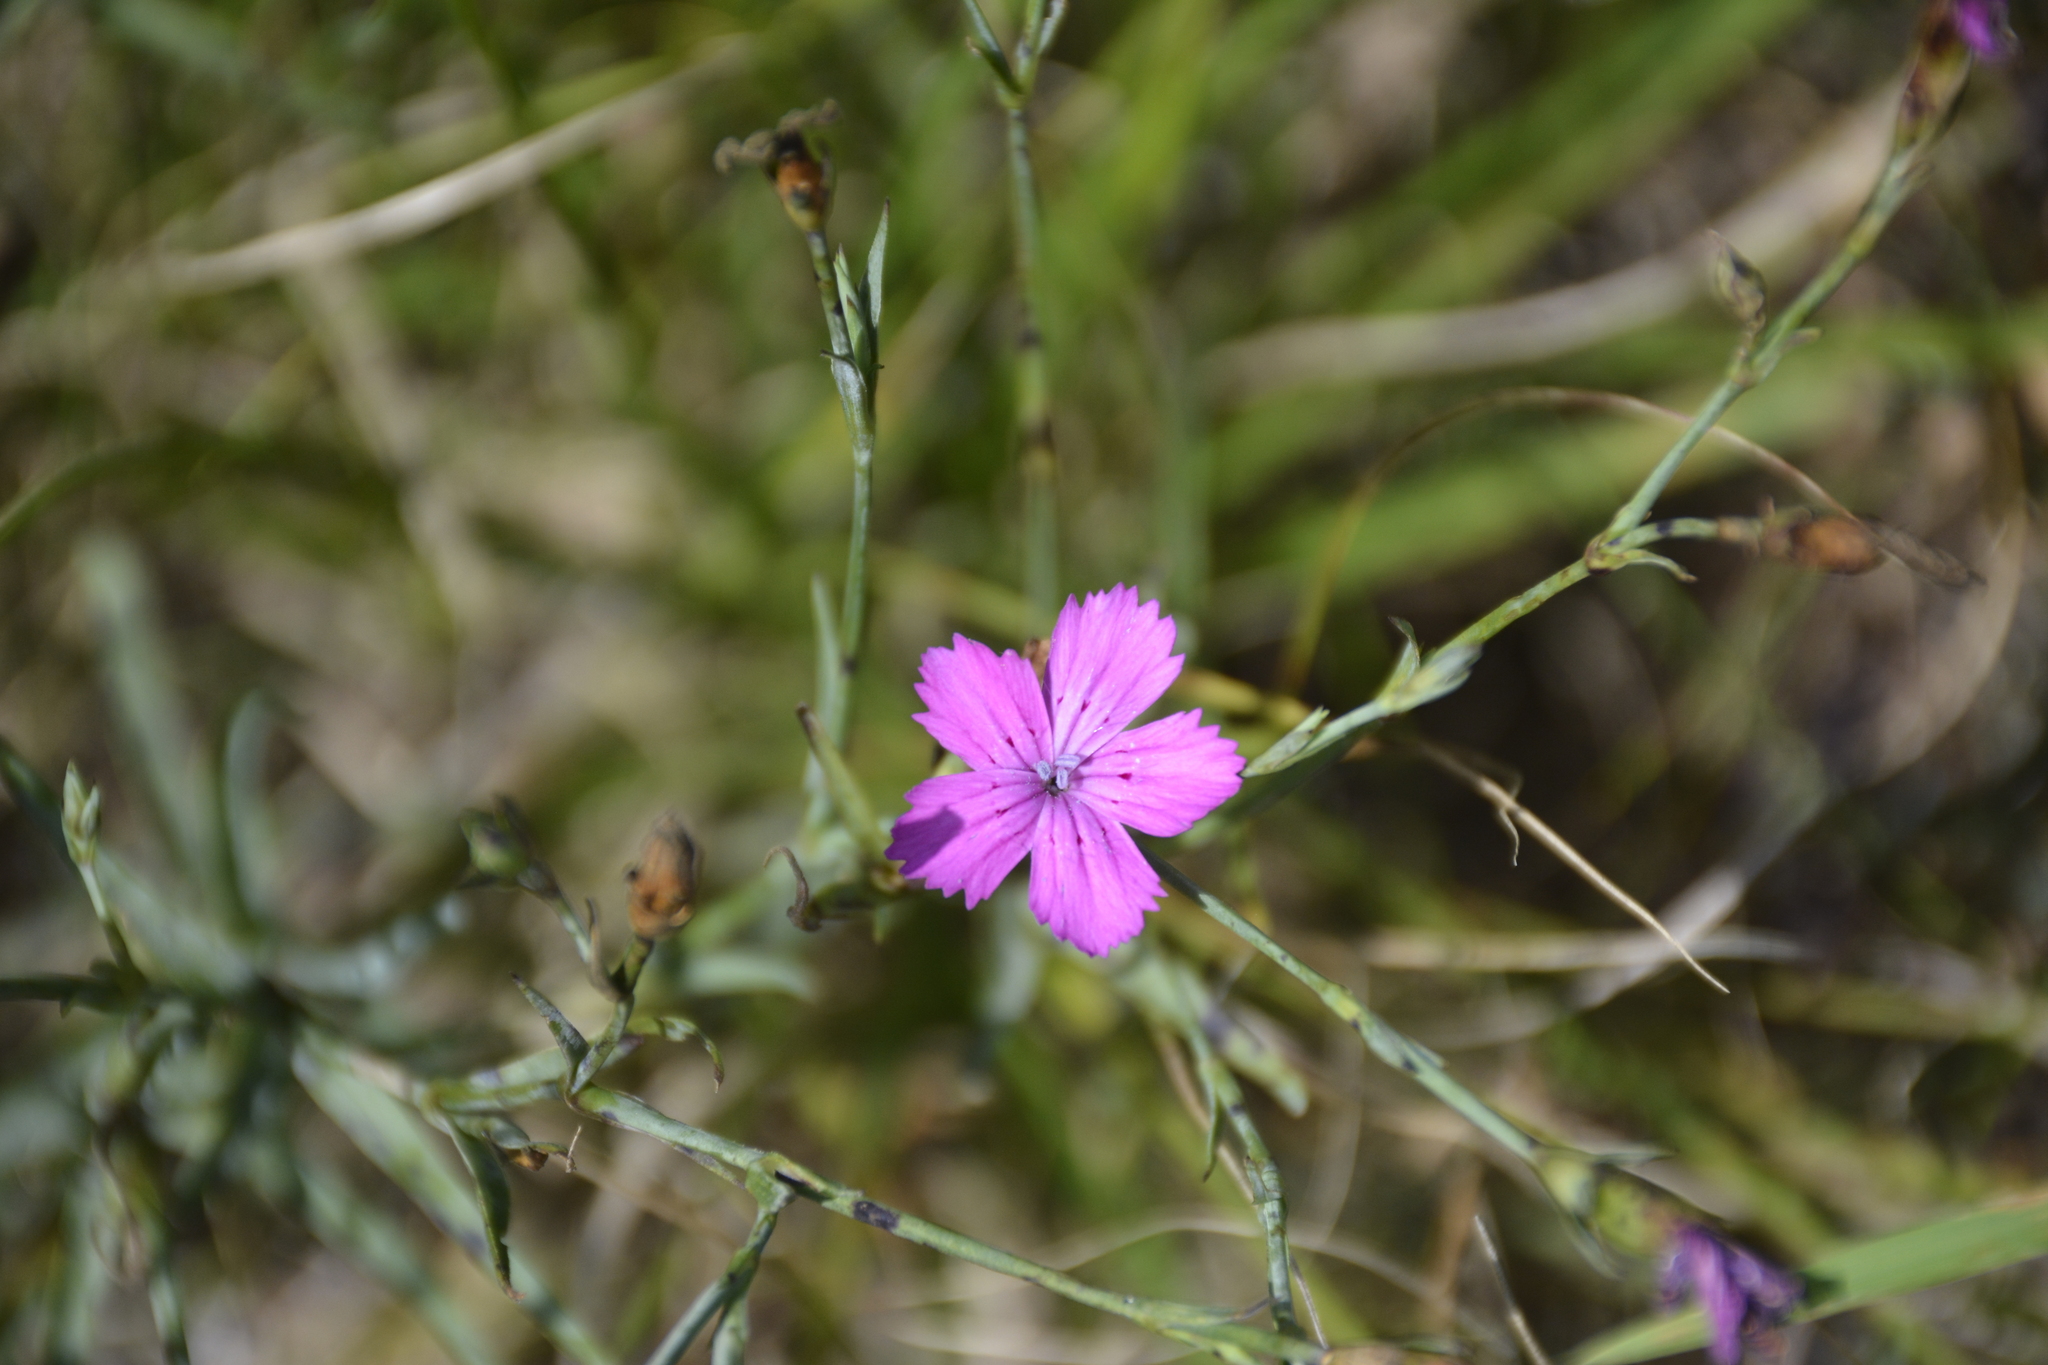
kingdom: Plantae
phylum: Tracheophyta
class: Magnoliopsida
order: Caryophyllales
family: Caryophyllaceae
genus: Dianthus
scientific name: Dianthus chinensis
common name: Rainbow pink
